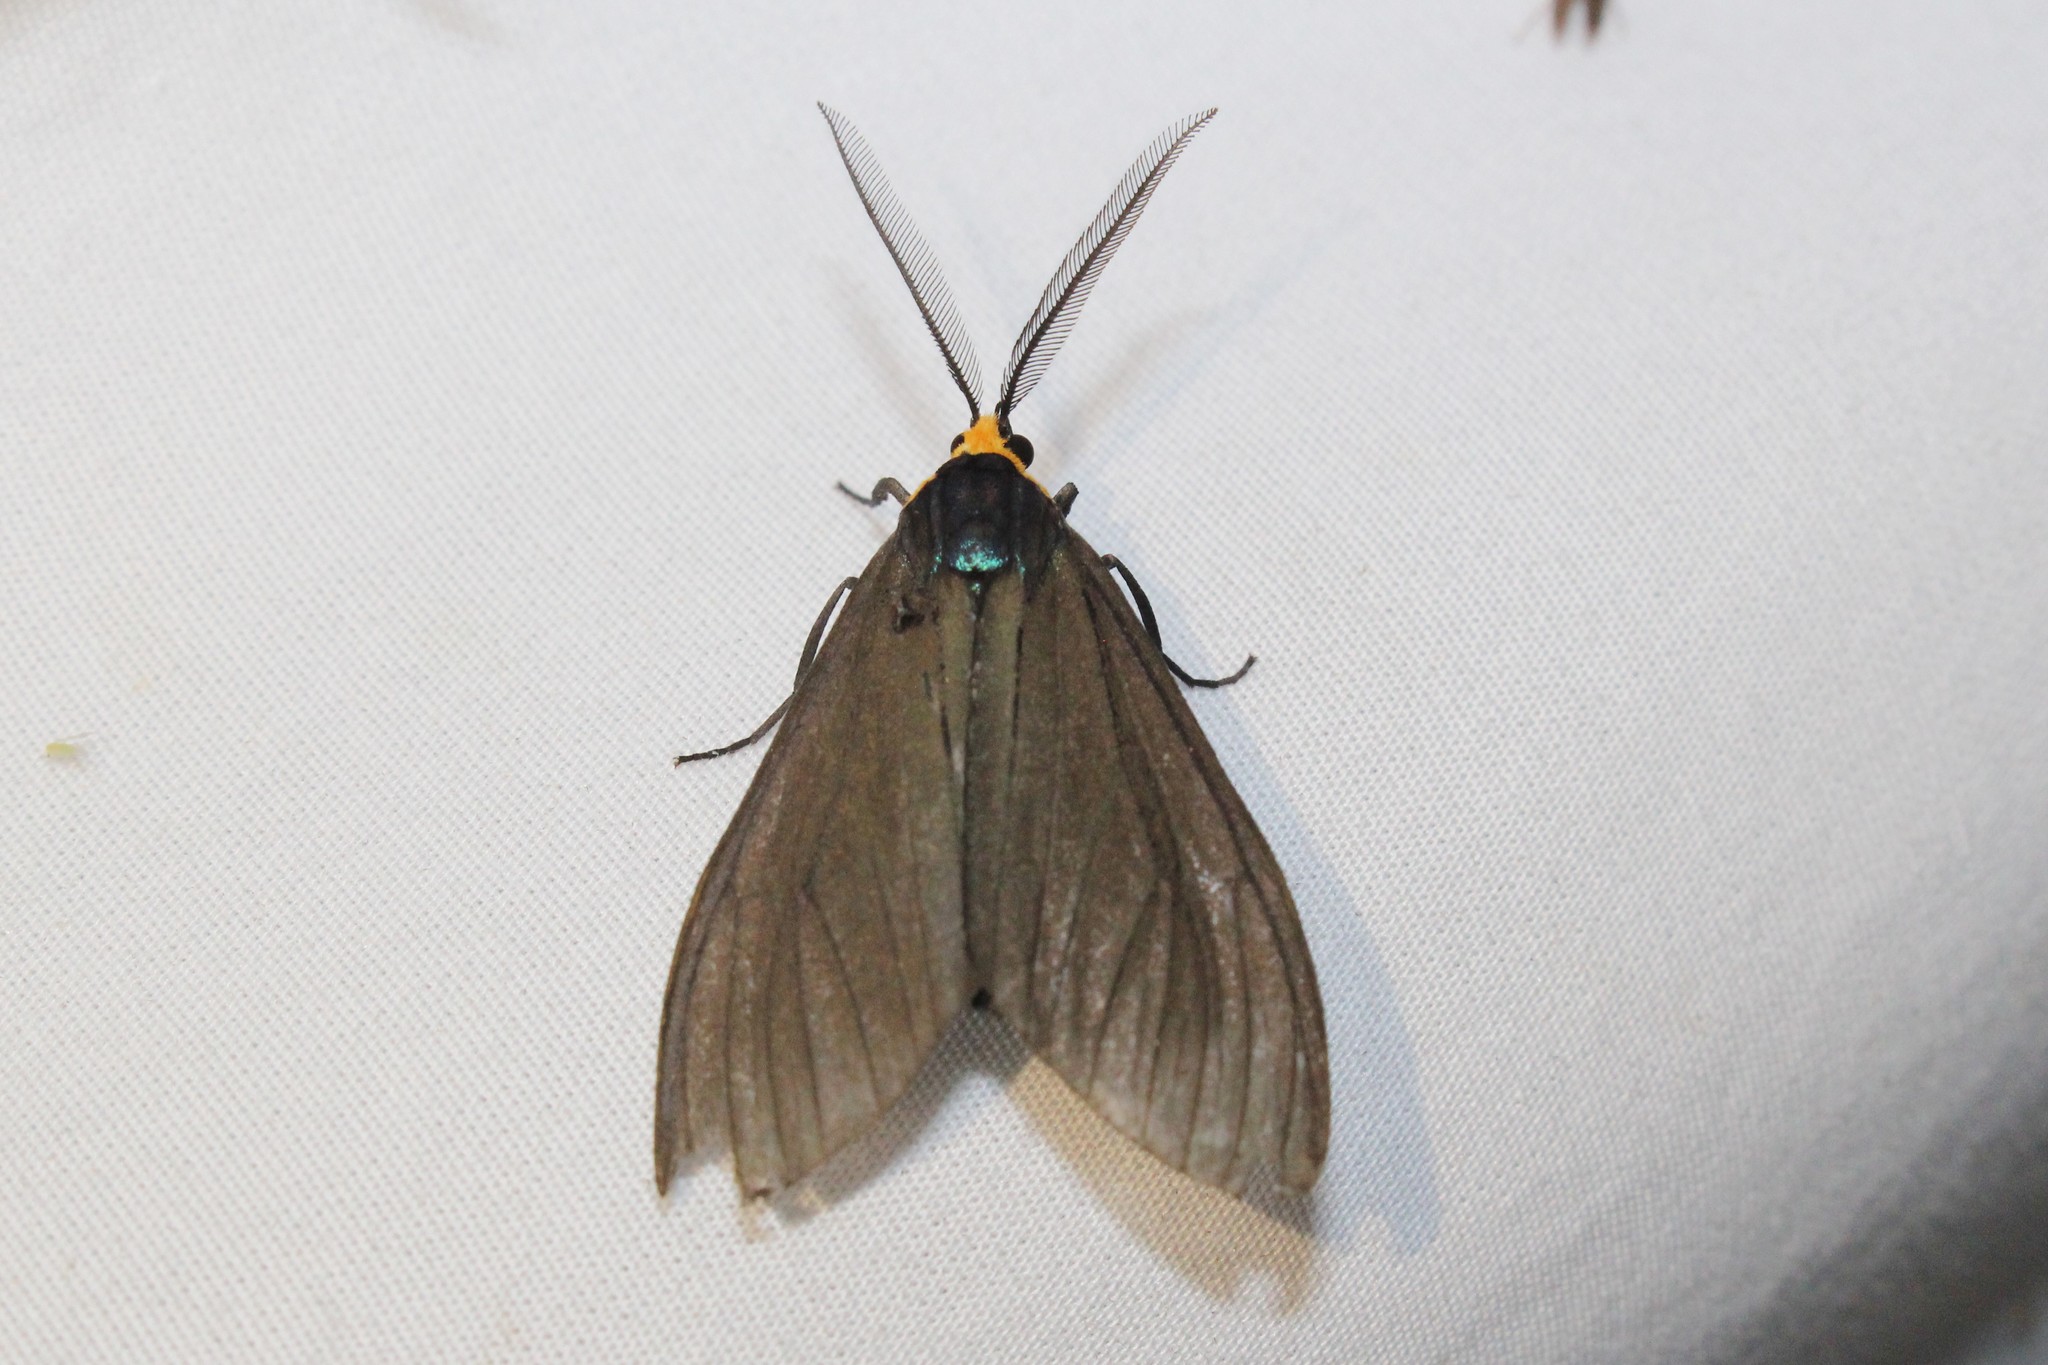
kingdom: Animalia
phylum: Arthropoda
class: Insecta
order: Lepidoptera
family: Erebidae
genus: Ctenucha
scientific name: Ctenucha virginica
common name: Virginia ctenucha moth
